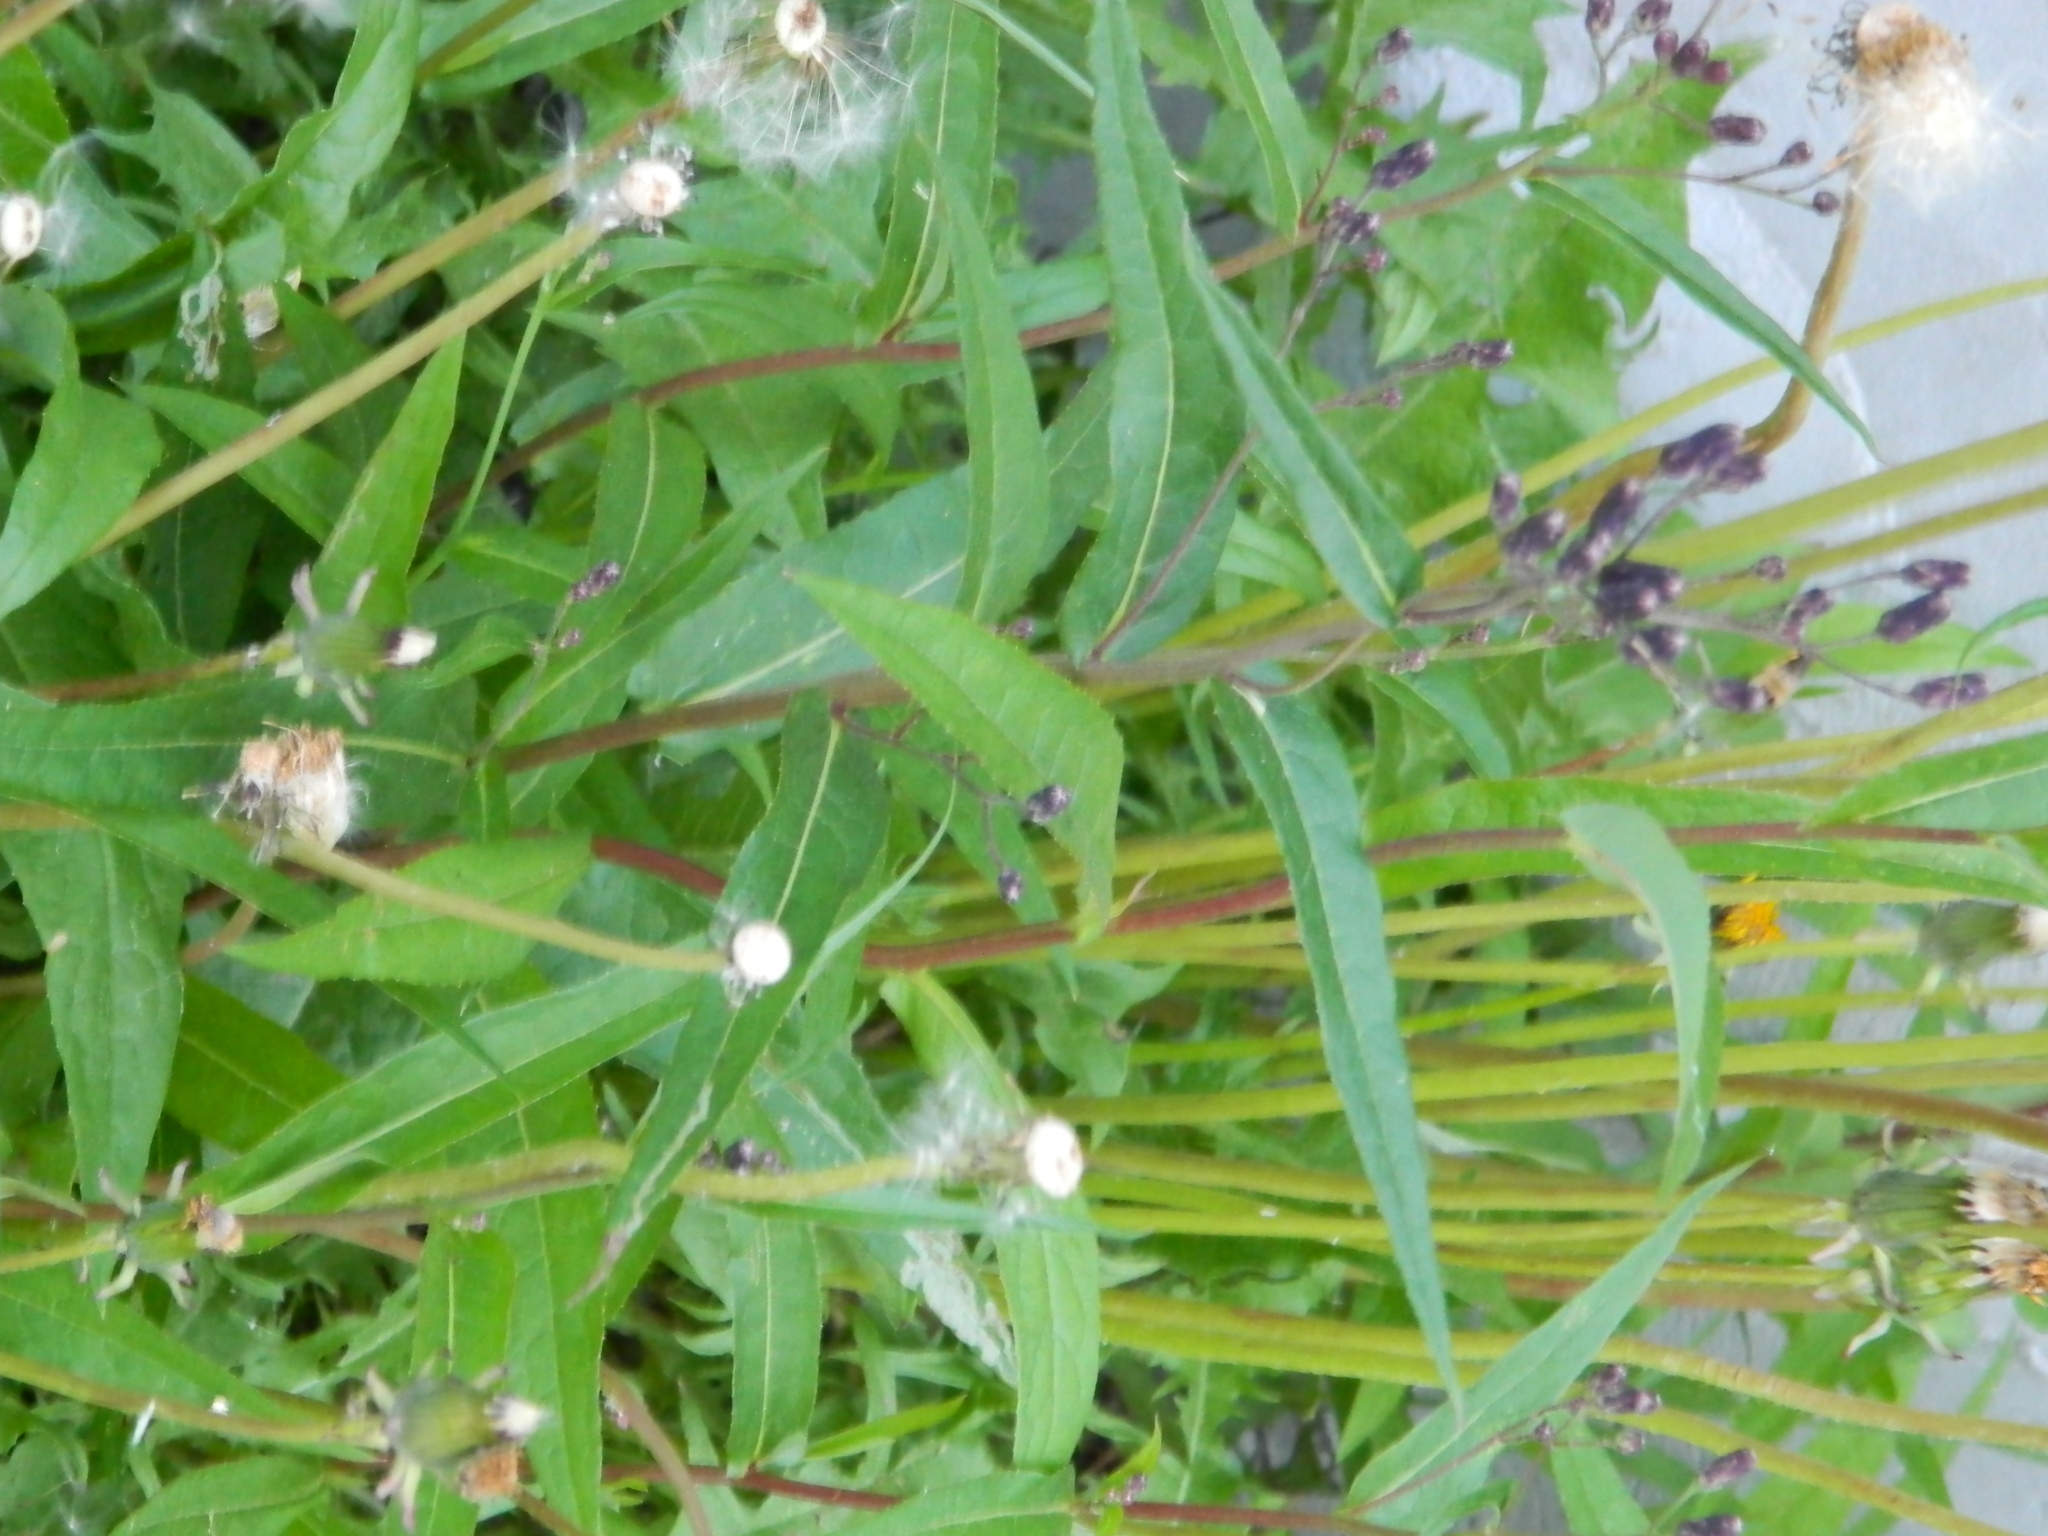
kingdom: Plantae
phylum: Tracheophyta
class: Magnoliopsida
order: Asterales
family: Asteraceae
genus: Lactuca
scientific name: Lactuca sibirica
